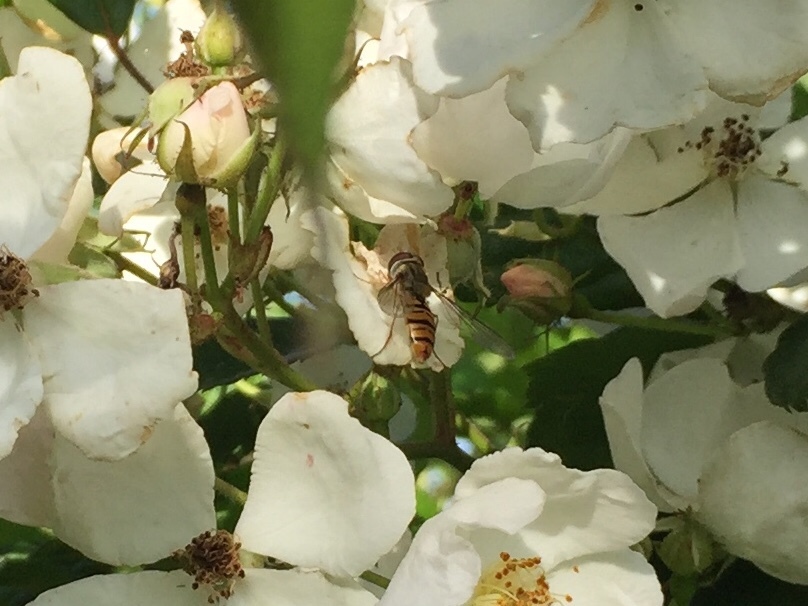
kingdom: Animalia
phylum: Arthropoda
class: Insecta
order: Diptera
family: Syrphidae
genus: Episyrphus
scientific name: Episyrphus balteatus
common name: Marmalade hoverfly
